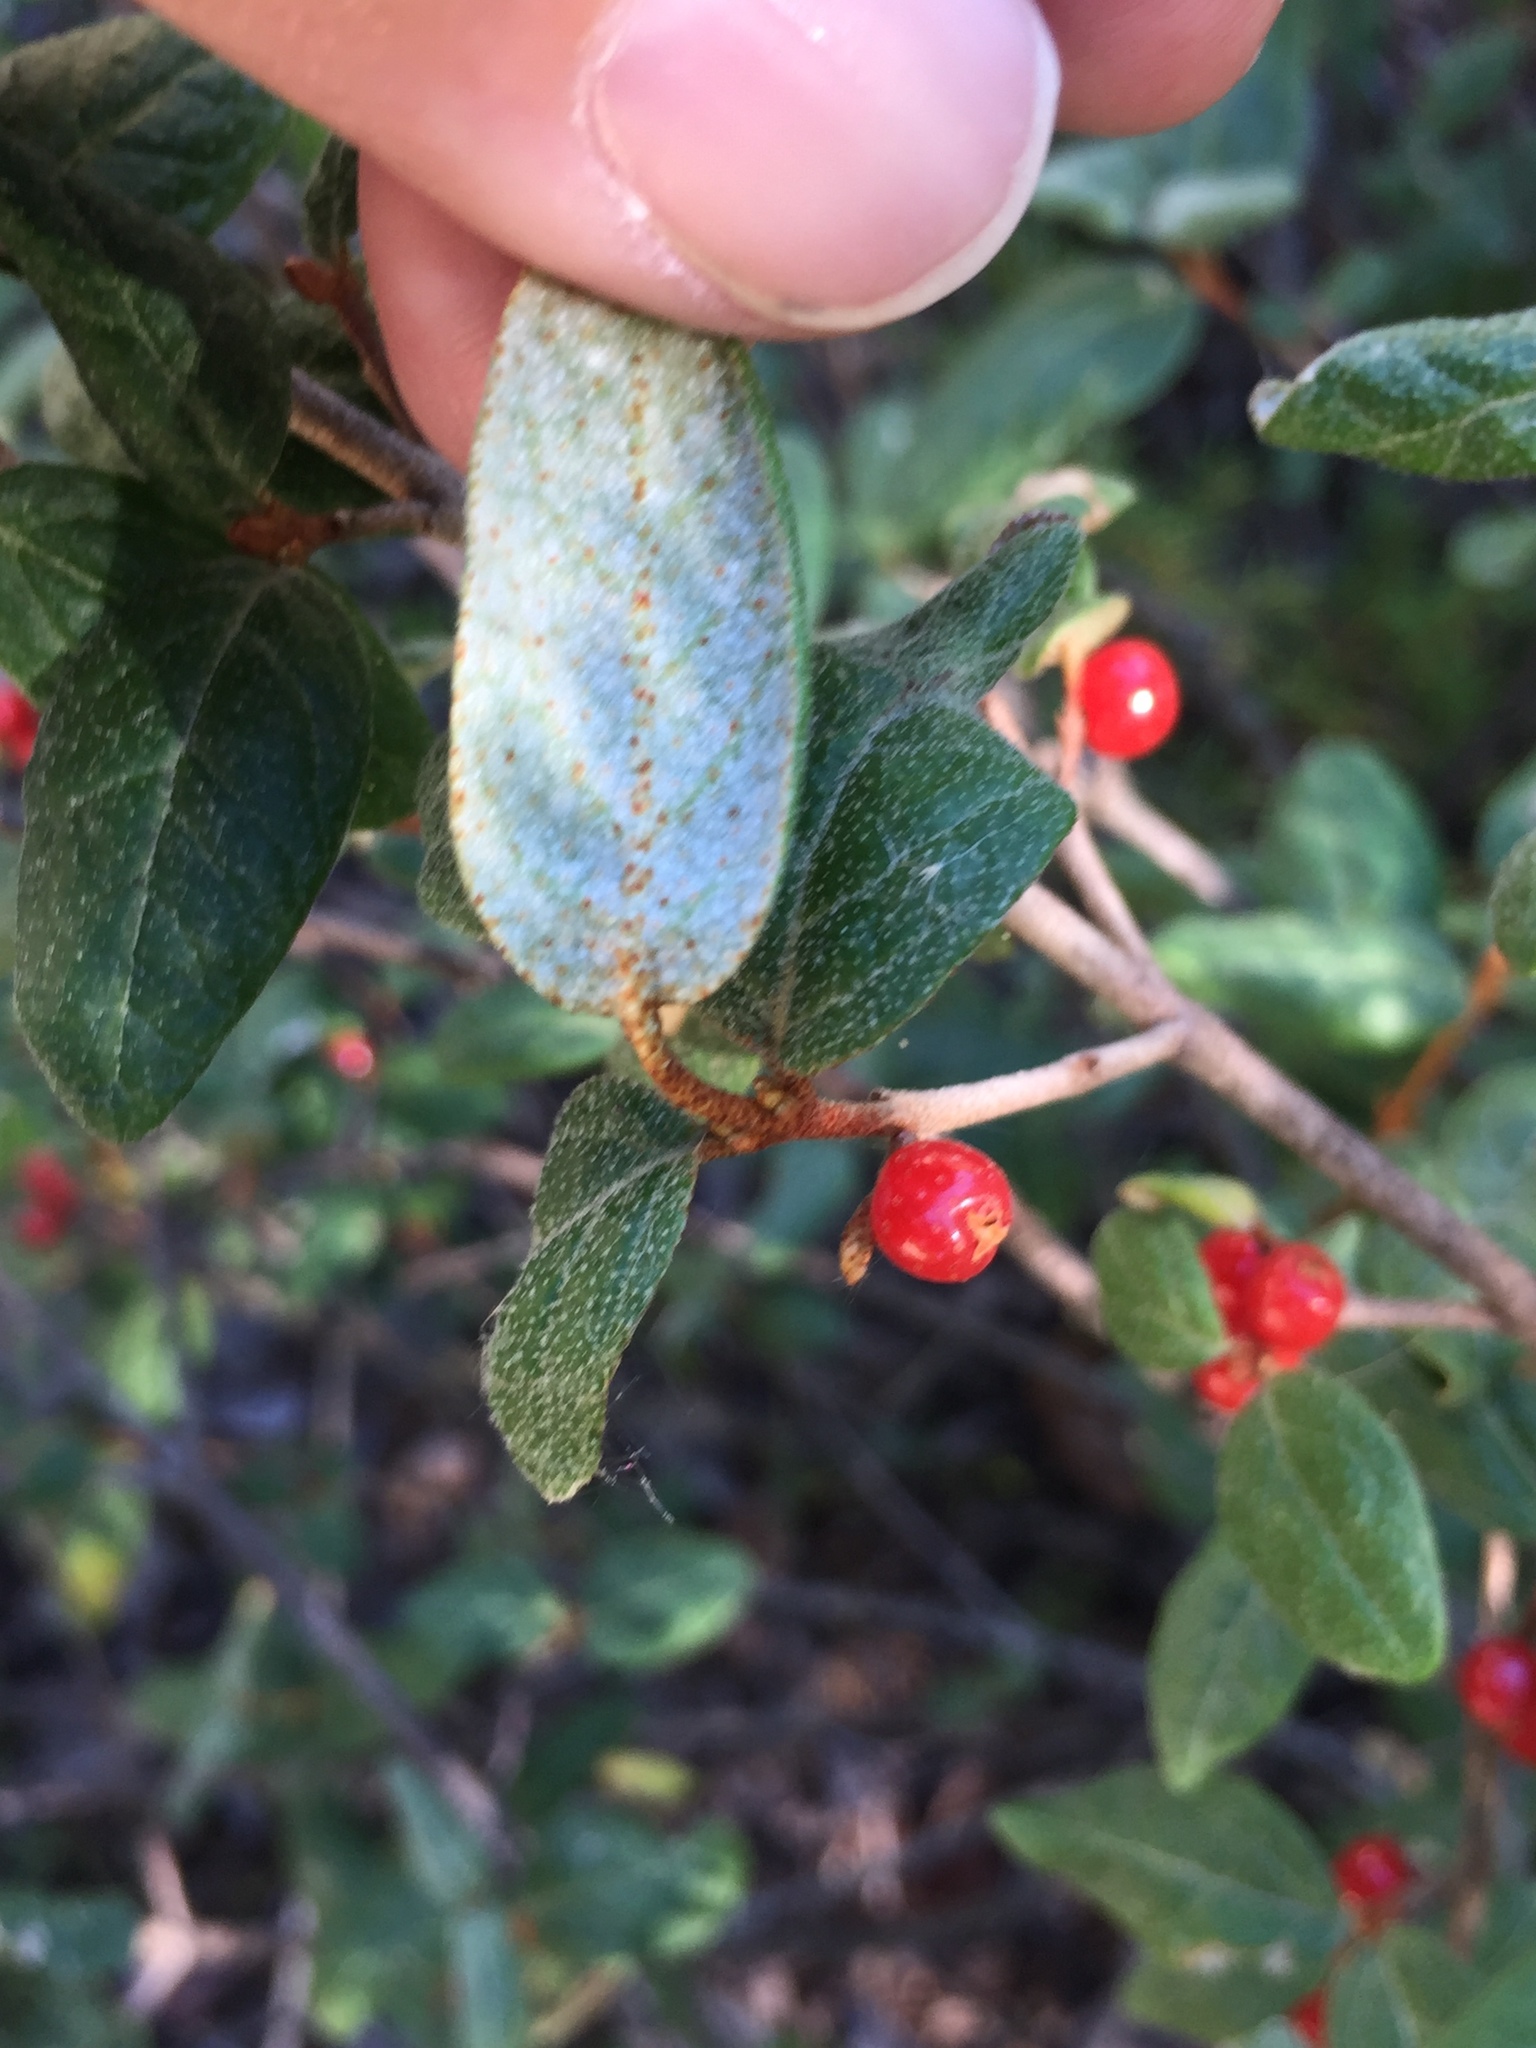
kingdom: Plantae
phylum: Tracheophyta
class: Magnoliopsida
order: Rosales
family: Elaeagnaceae
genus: Shepherdia
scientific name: Shepherdia canadensis
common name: Soapberry
